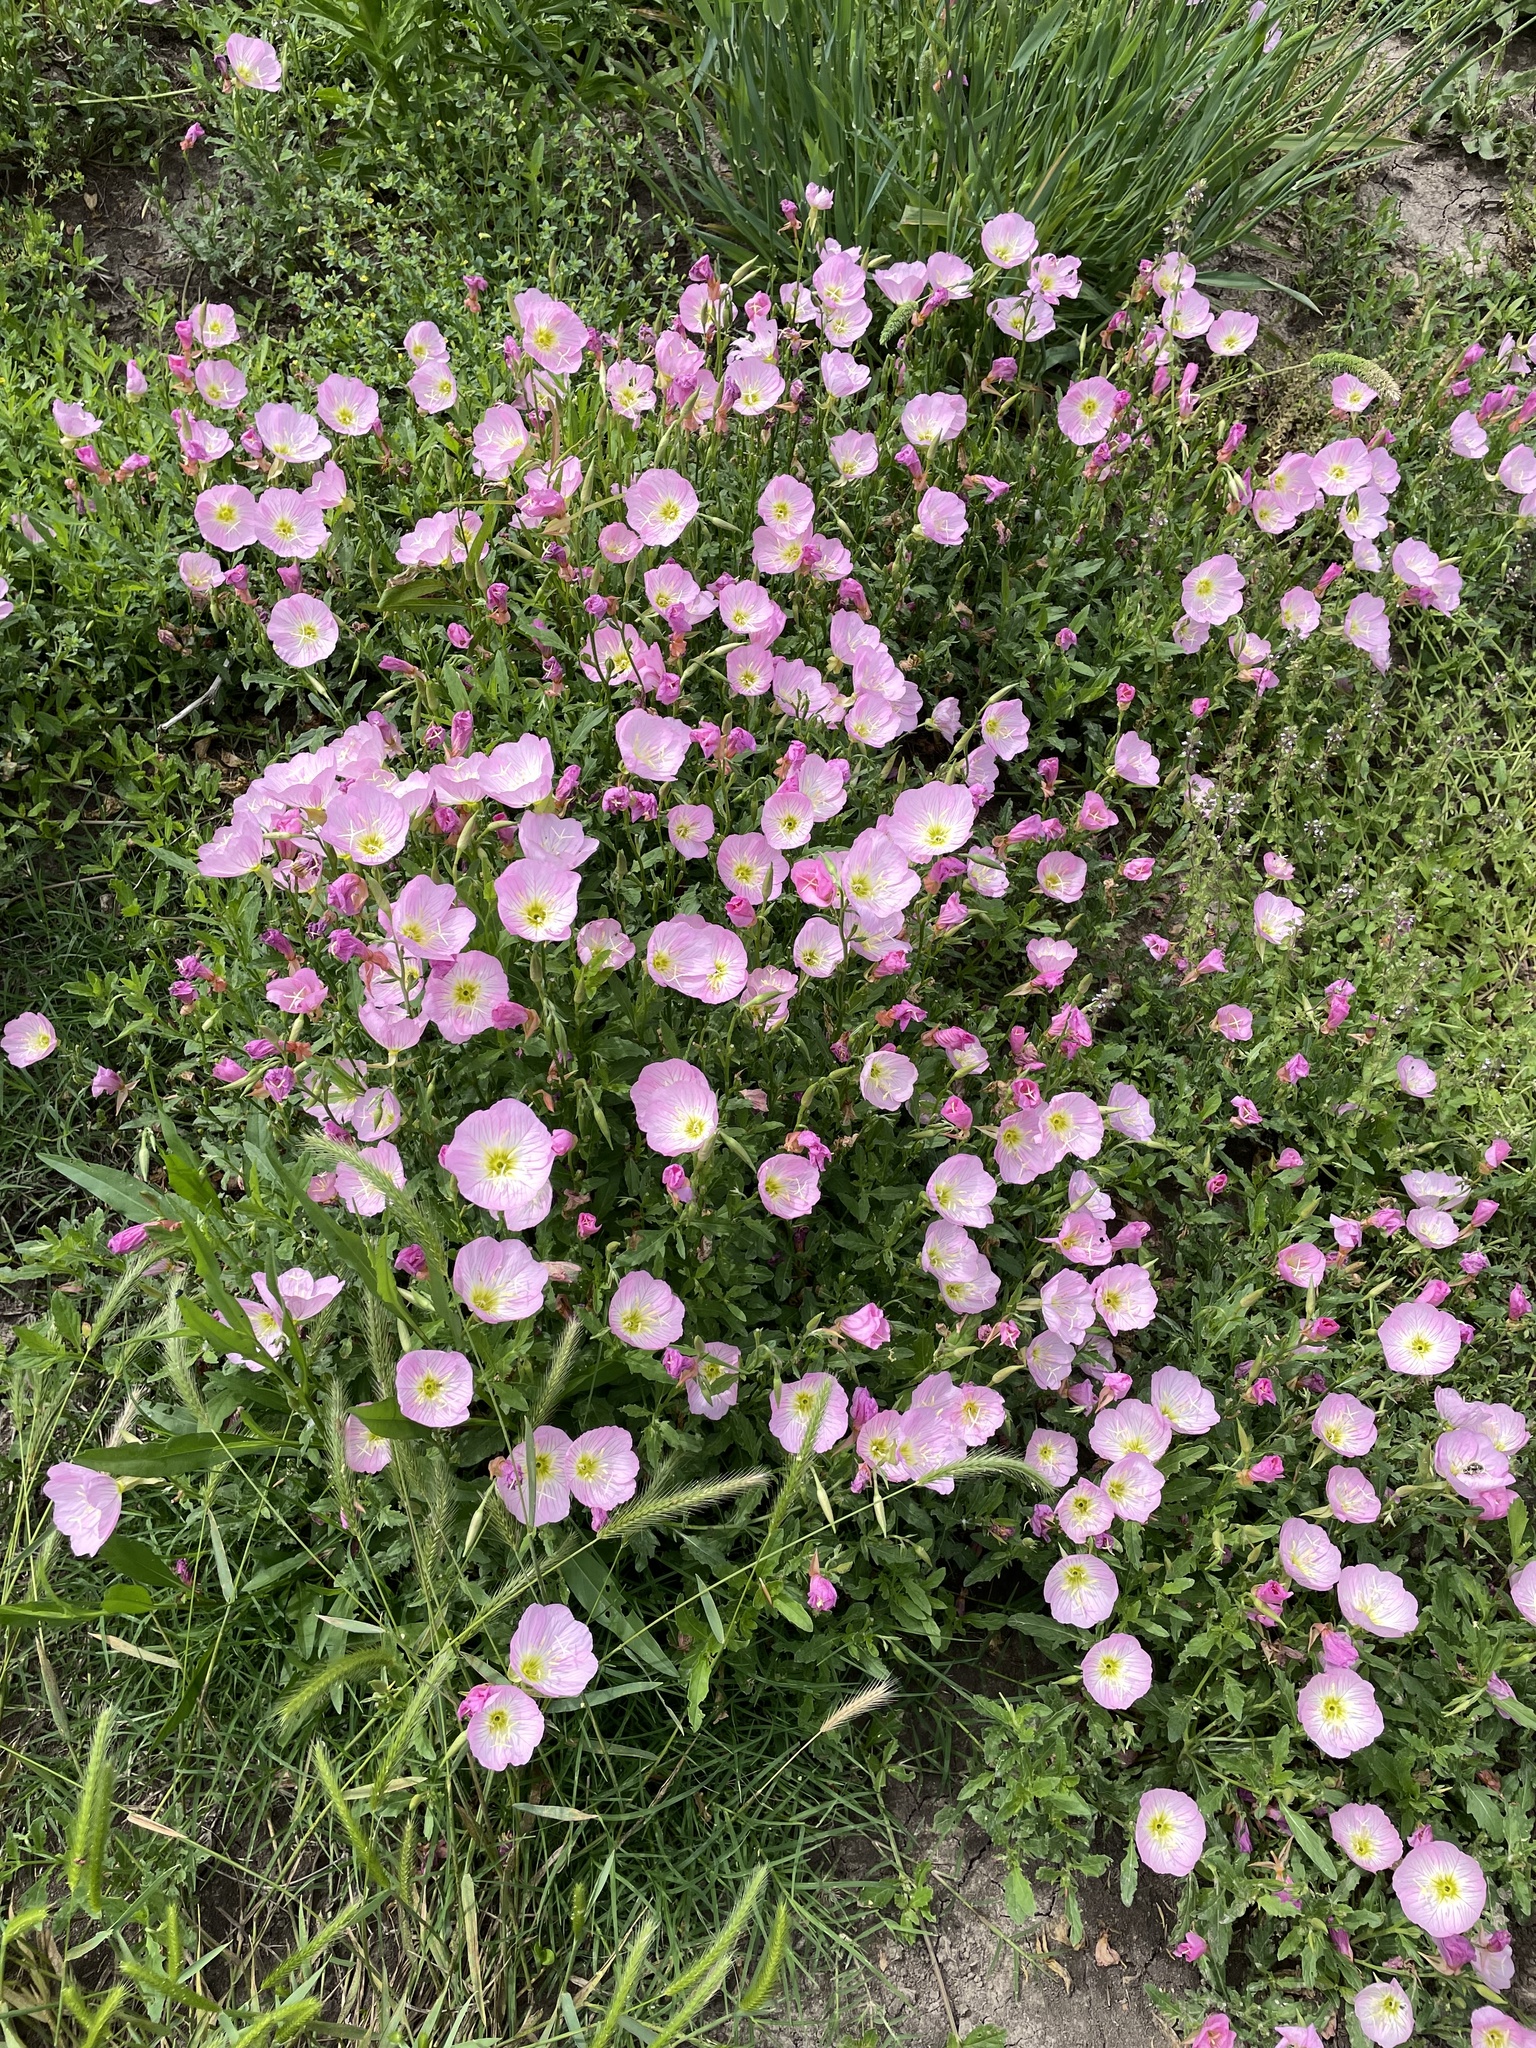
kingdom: Plantae
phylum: Tracheophyta
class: Magnoliopsida
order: Myrtales
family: Onagraceae
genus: Oenothera
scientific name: Oenothera speciosa
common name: White evening-primrose
